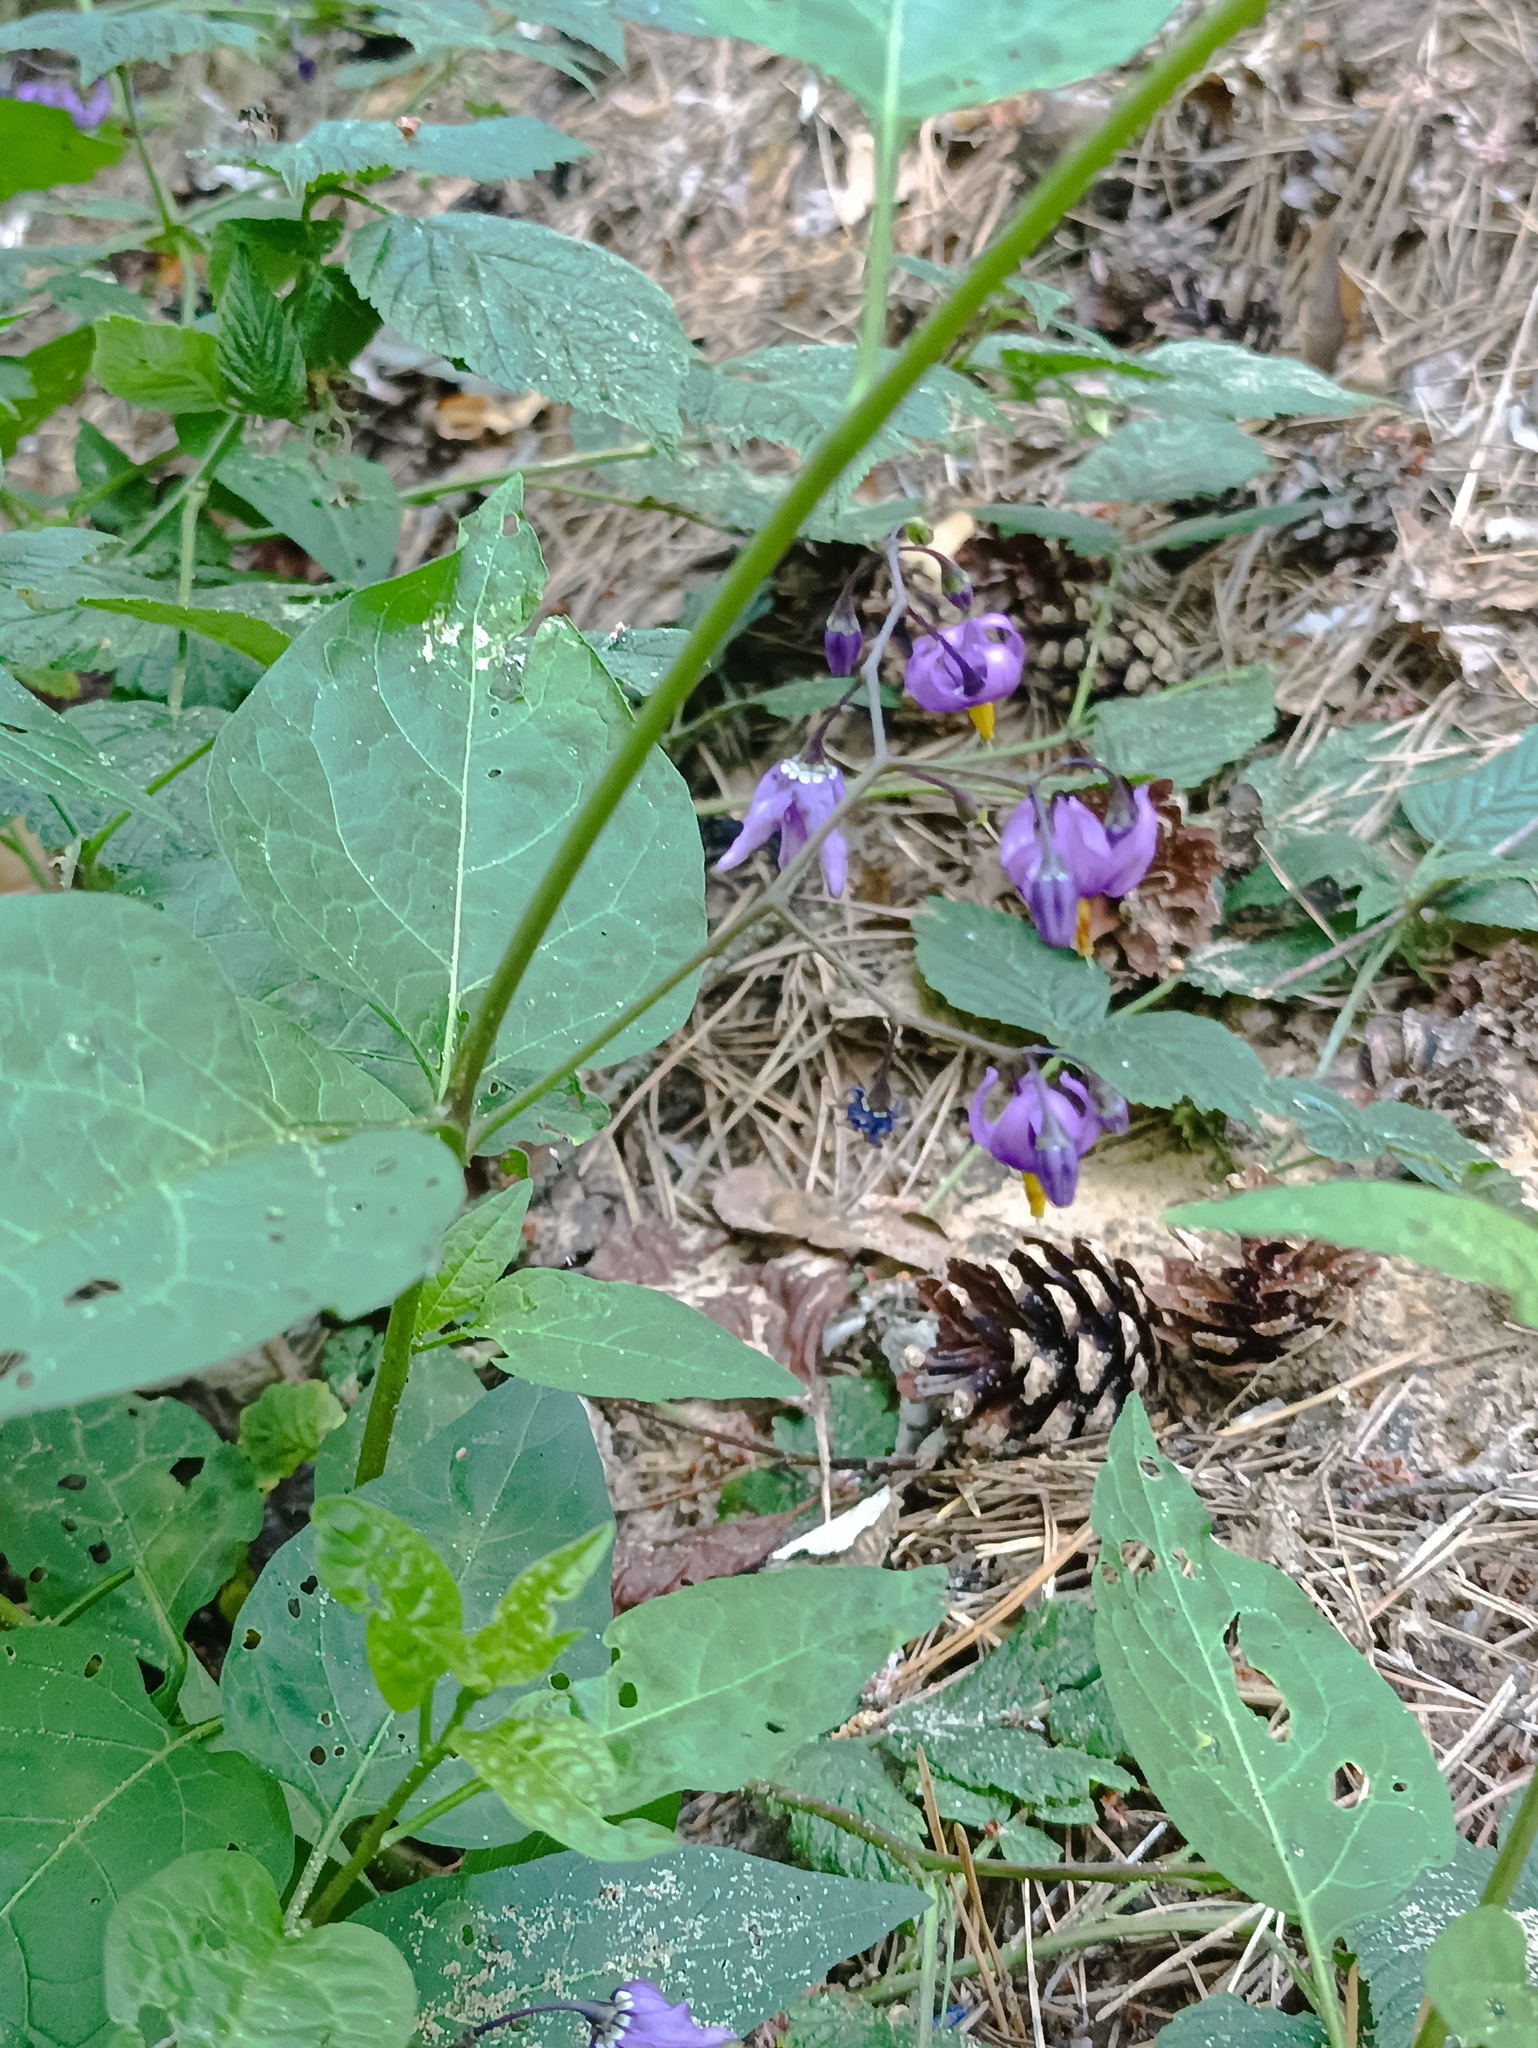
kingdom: Plantae
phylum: Tracheophyta
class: Magnoliopsida
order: Solanales
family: Solanaceae
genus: Solanum
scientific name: Solanum dulcamara
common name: Climbing nightshade
